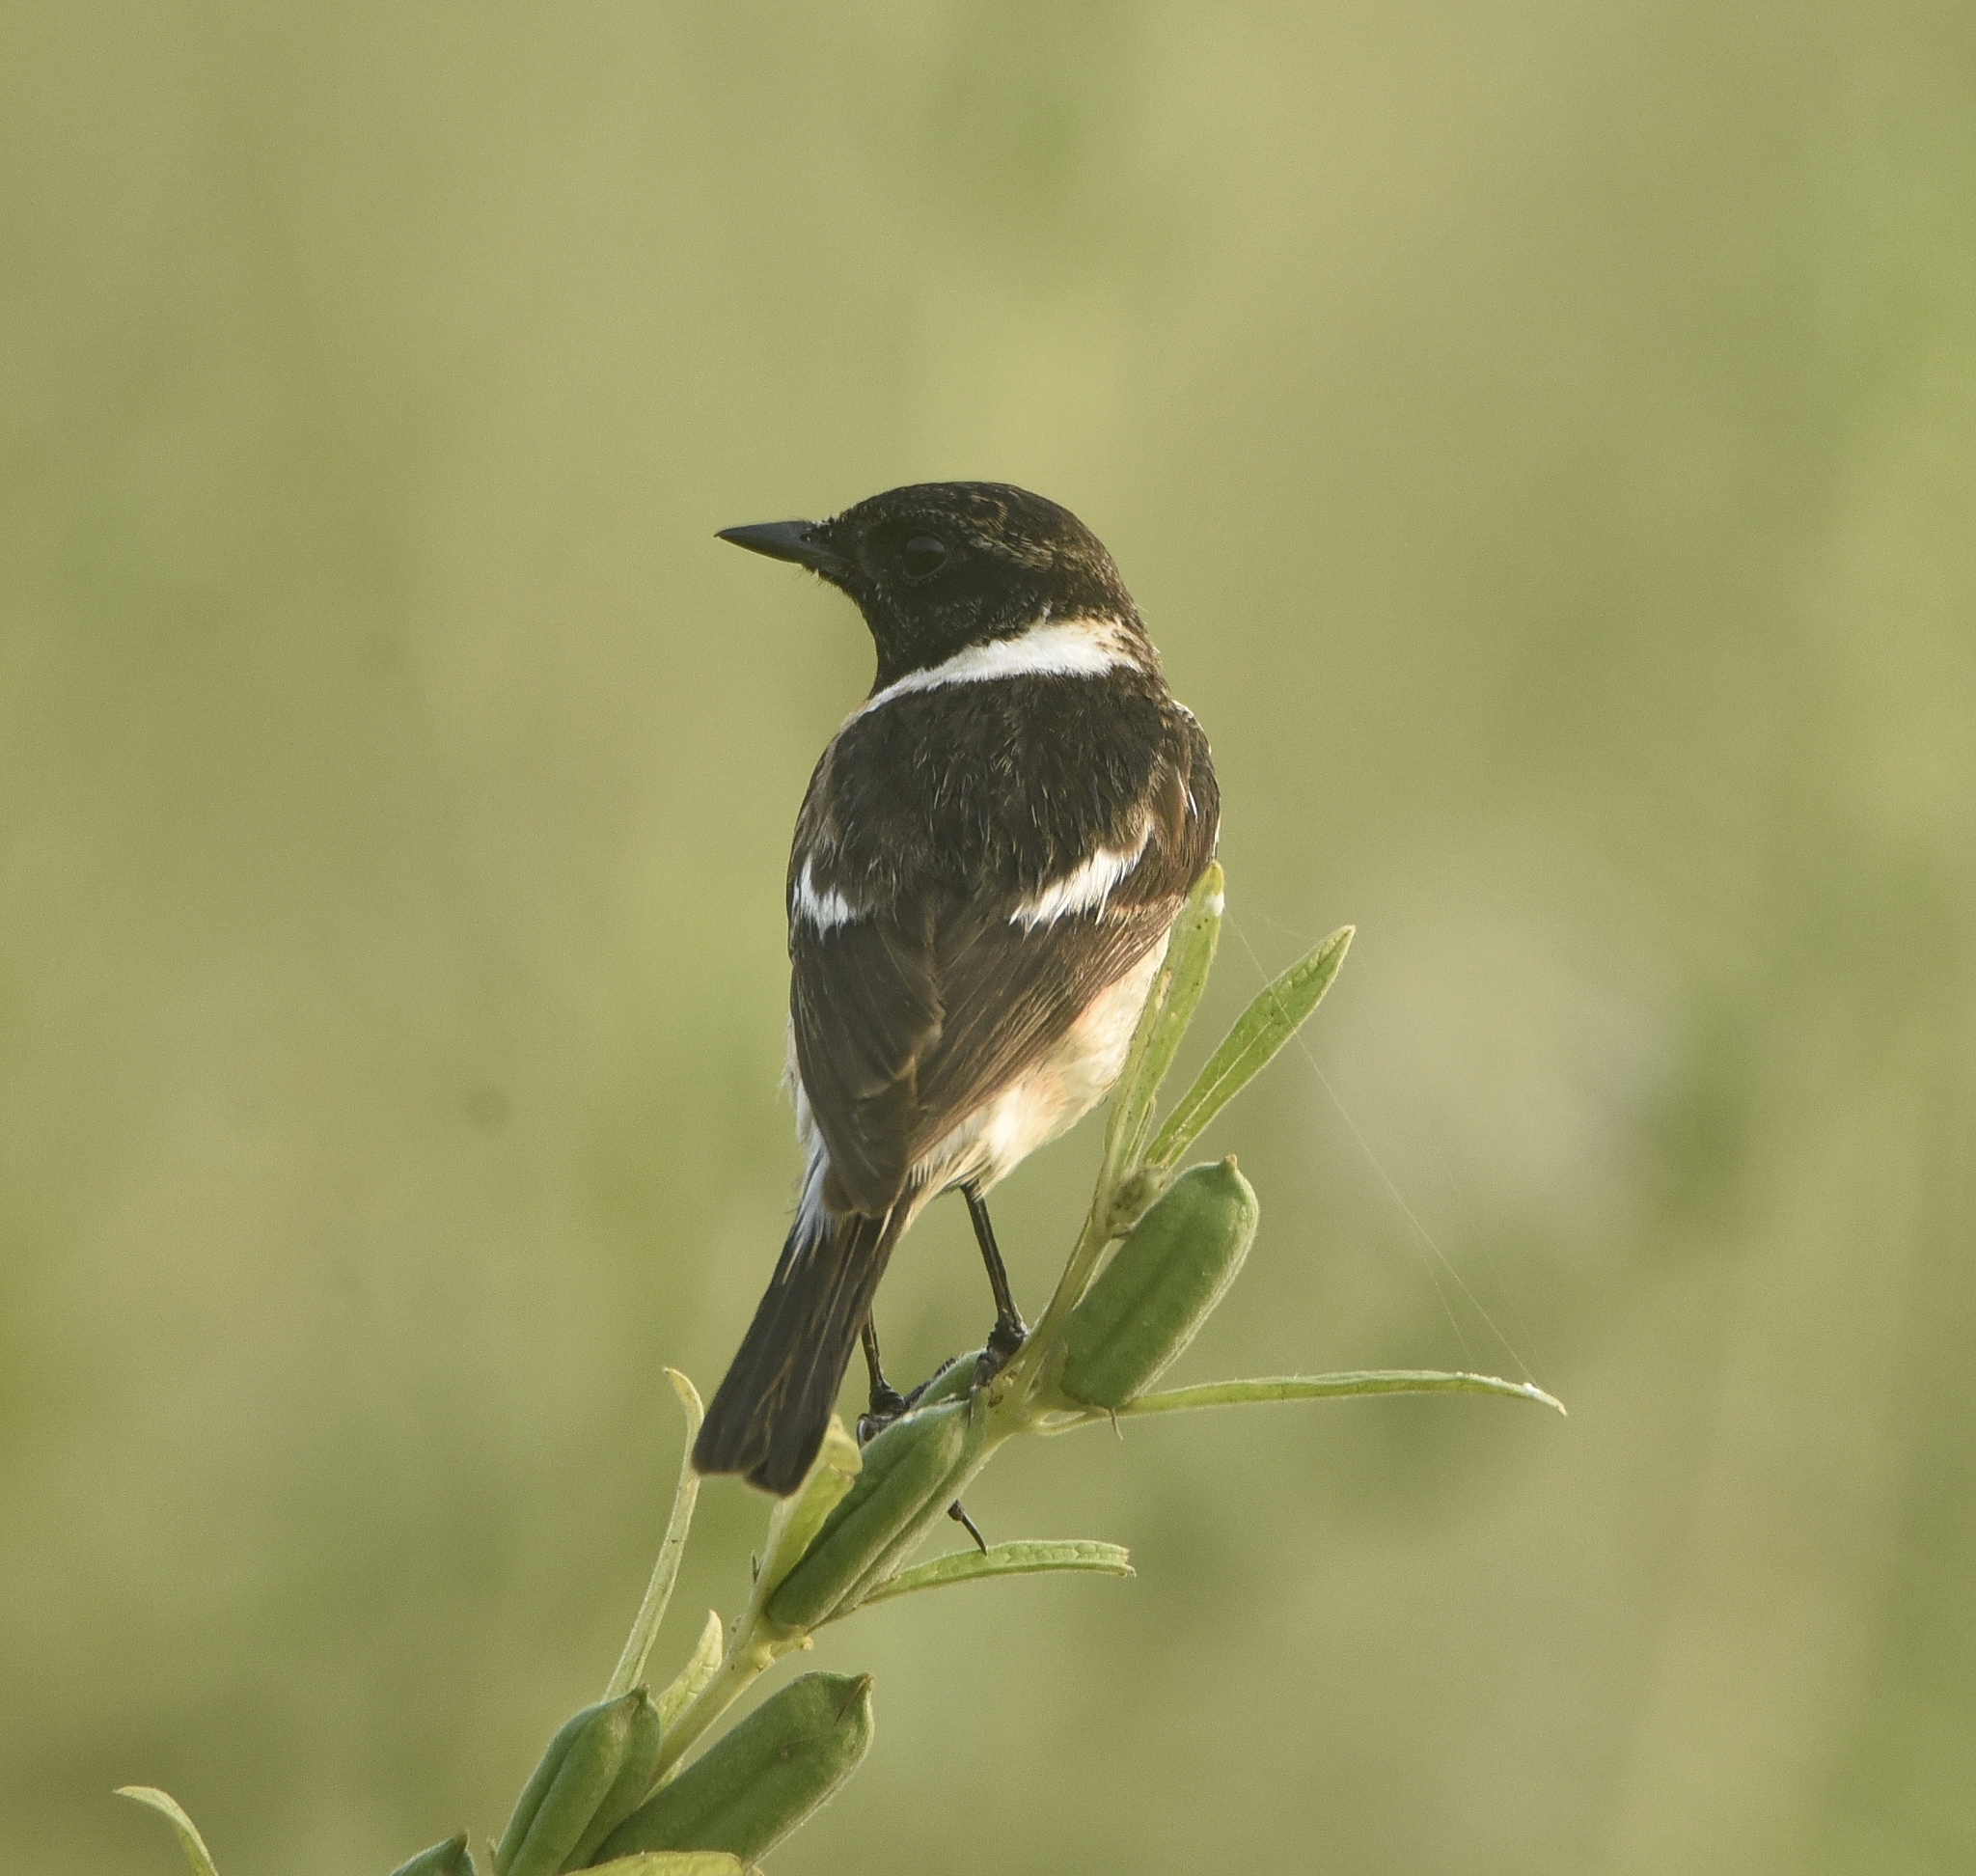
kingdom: Animalia
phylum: Chordata
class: Aves
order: Passeriformes
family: Muscicapidae
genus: Saxicola
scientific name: Saxicola maurus
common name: Siberian stonechat
